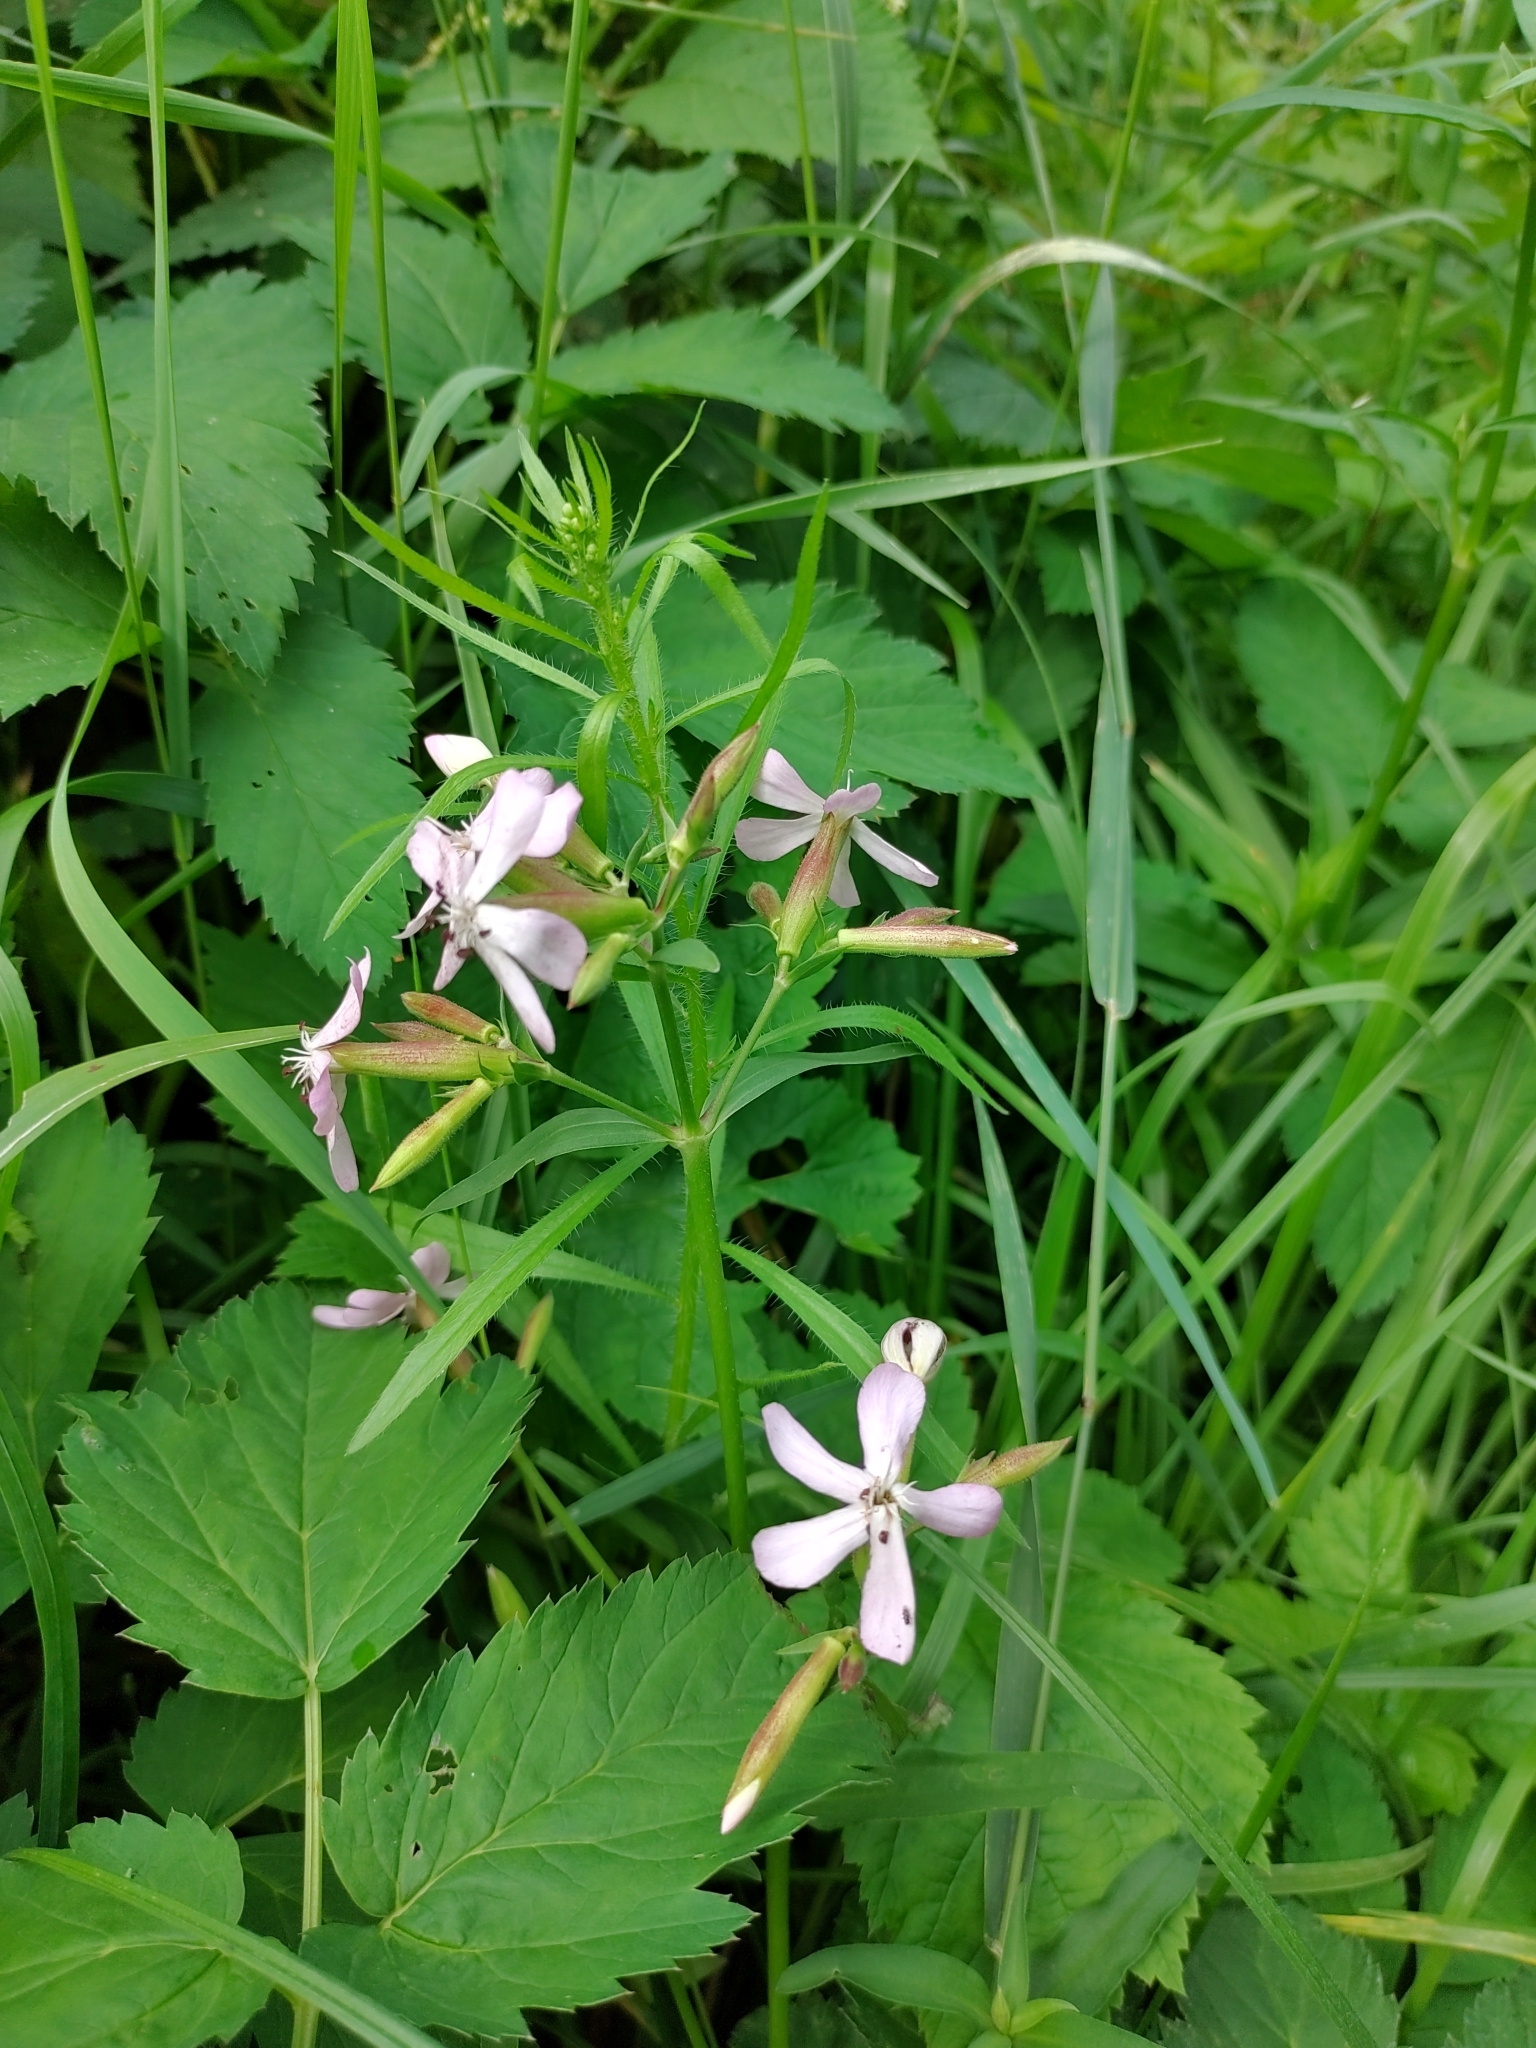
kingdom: Plantae
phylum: Tracheophyta
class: Magnoliopsida
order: Caryophyllales
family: Caryophyllaceae
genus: Saponaria
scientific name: Saponaria officinalis
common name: Soapwort
